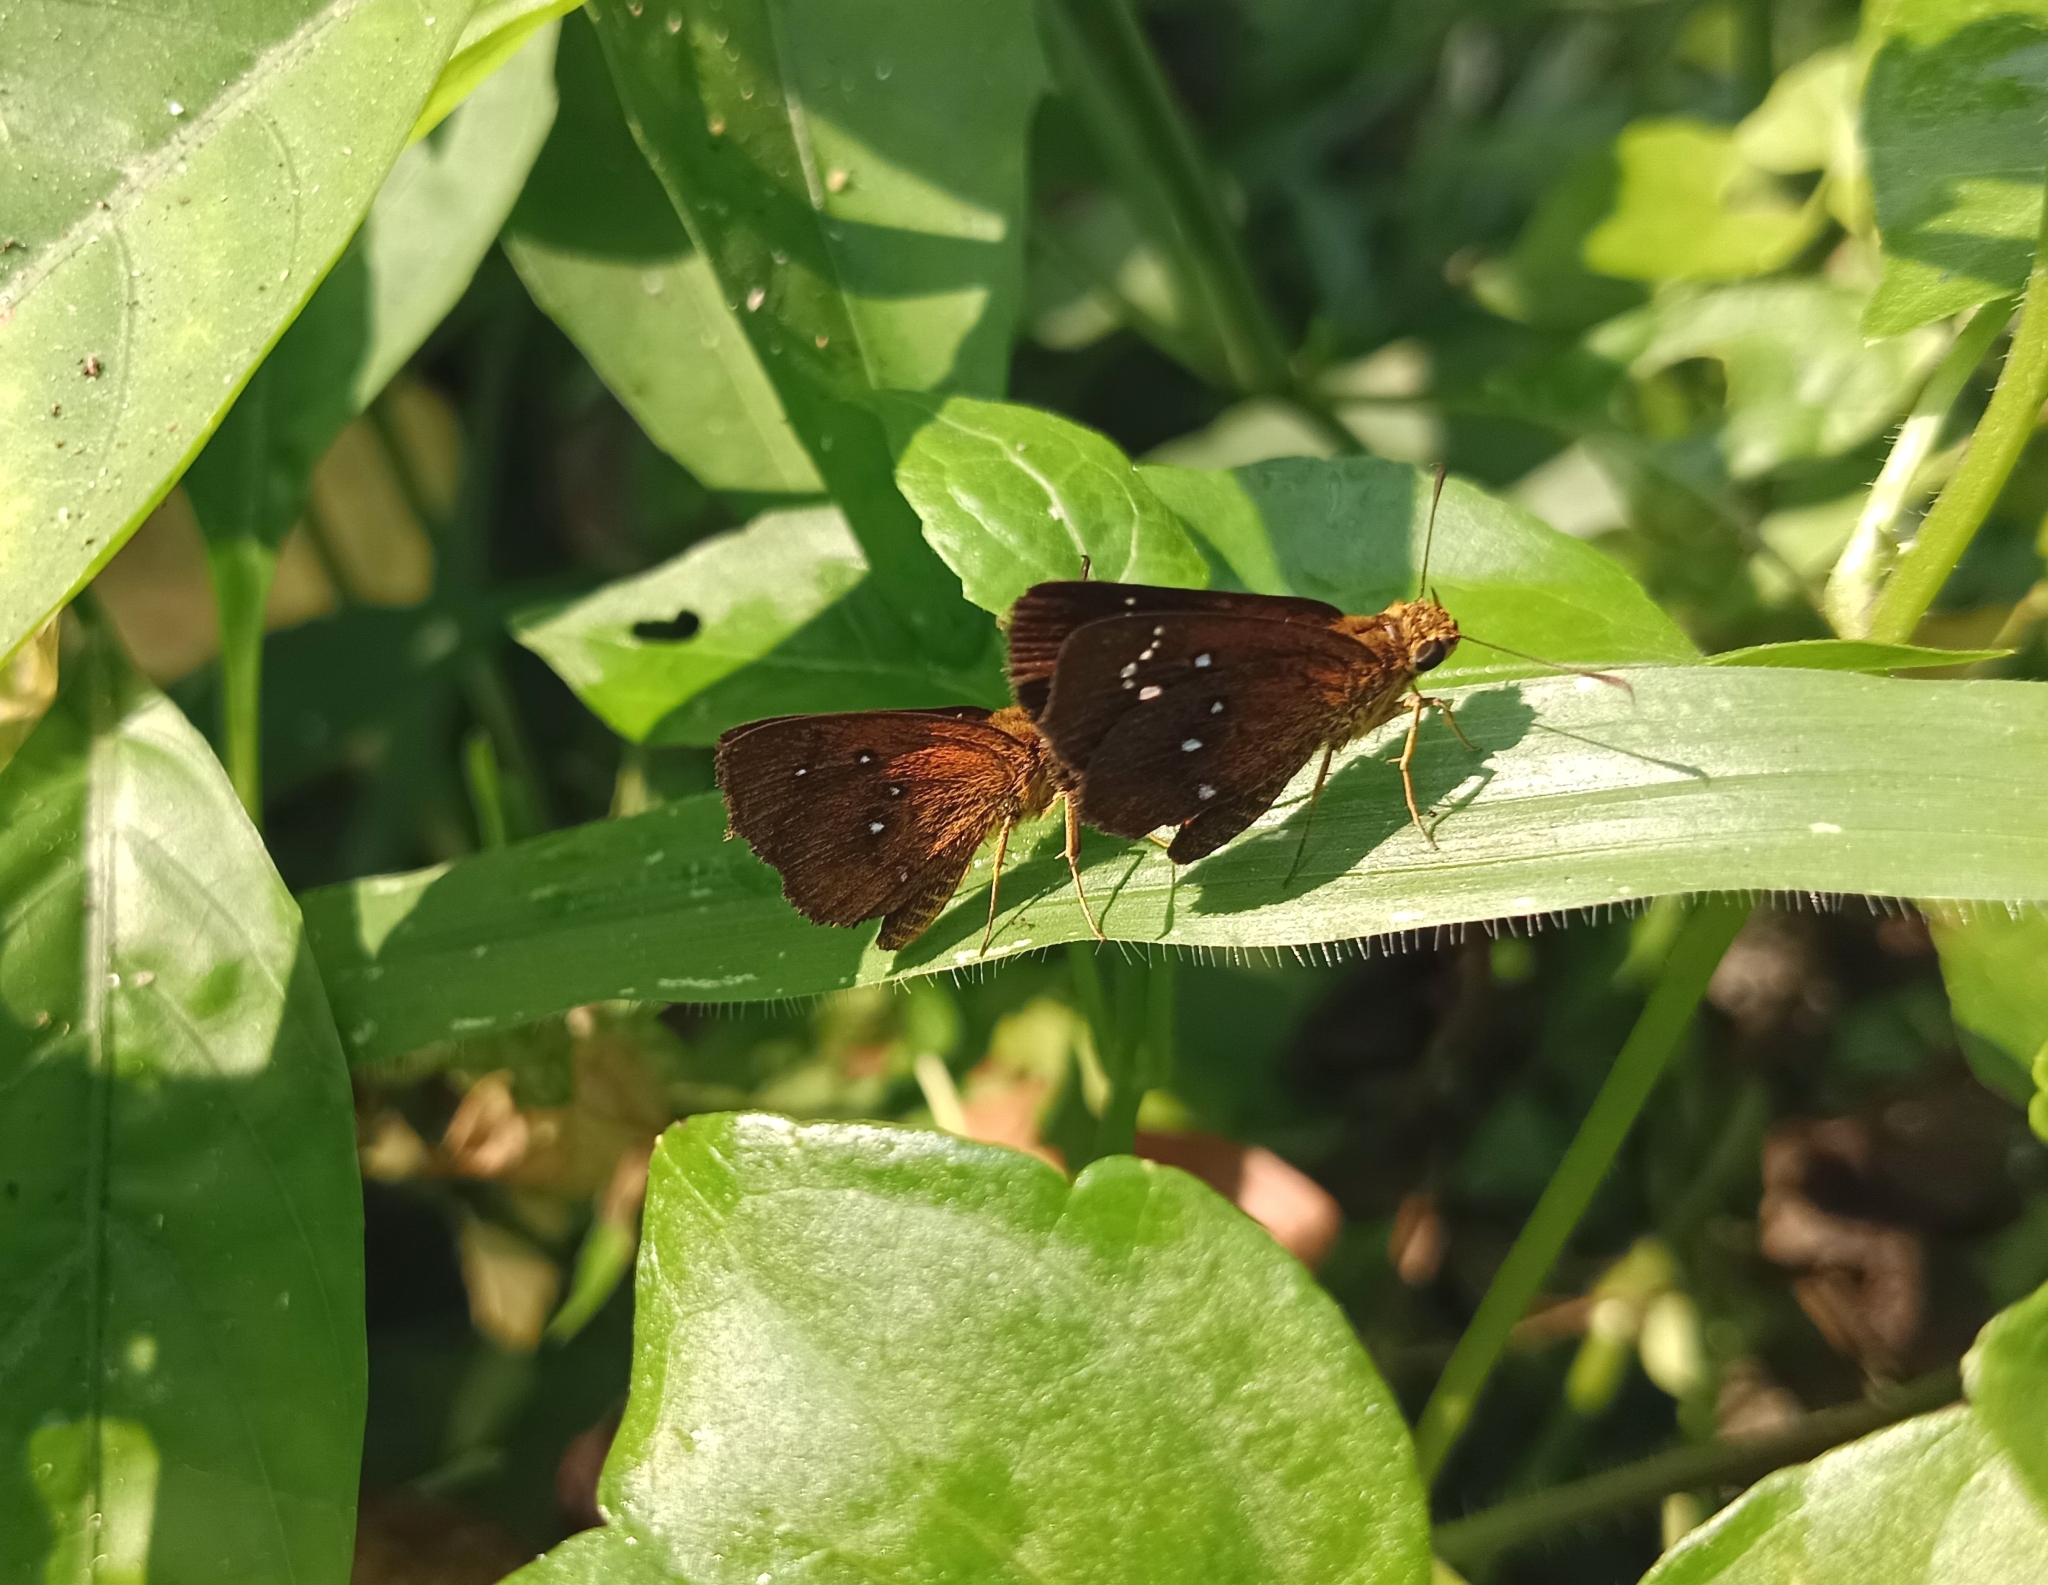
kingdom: Animalia
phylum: Arthropoda
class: Insecta
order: Lepidoptera
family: Hesperiidae
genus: Iambrix
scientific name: Iambrix salsala
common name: Chestnut bob
